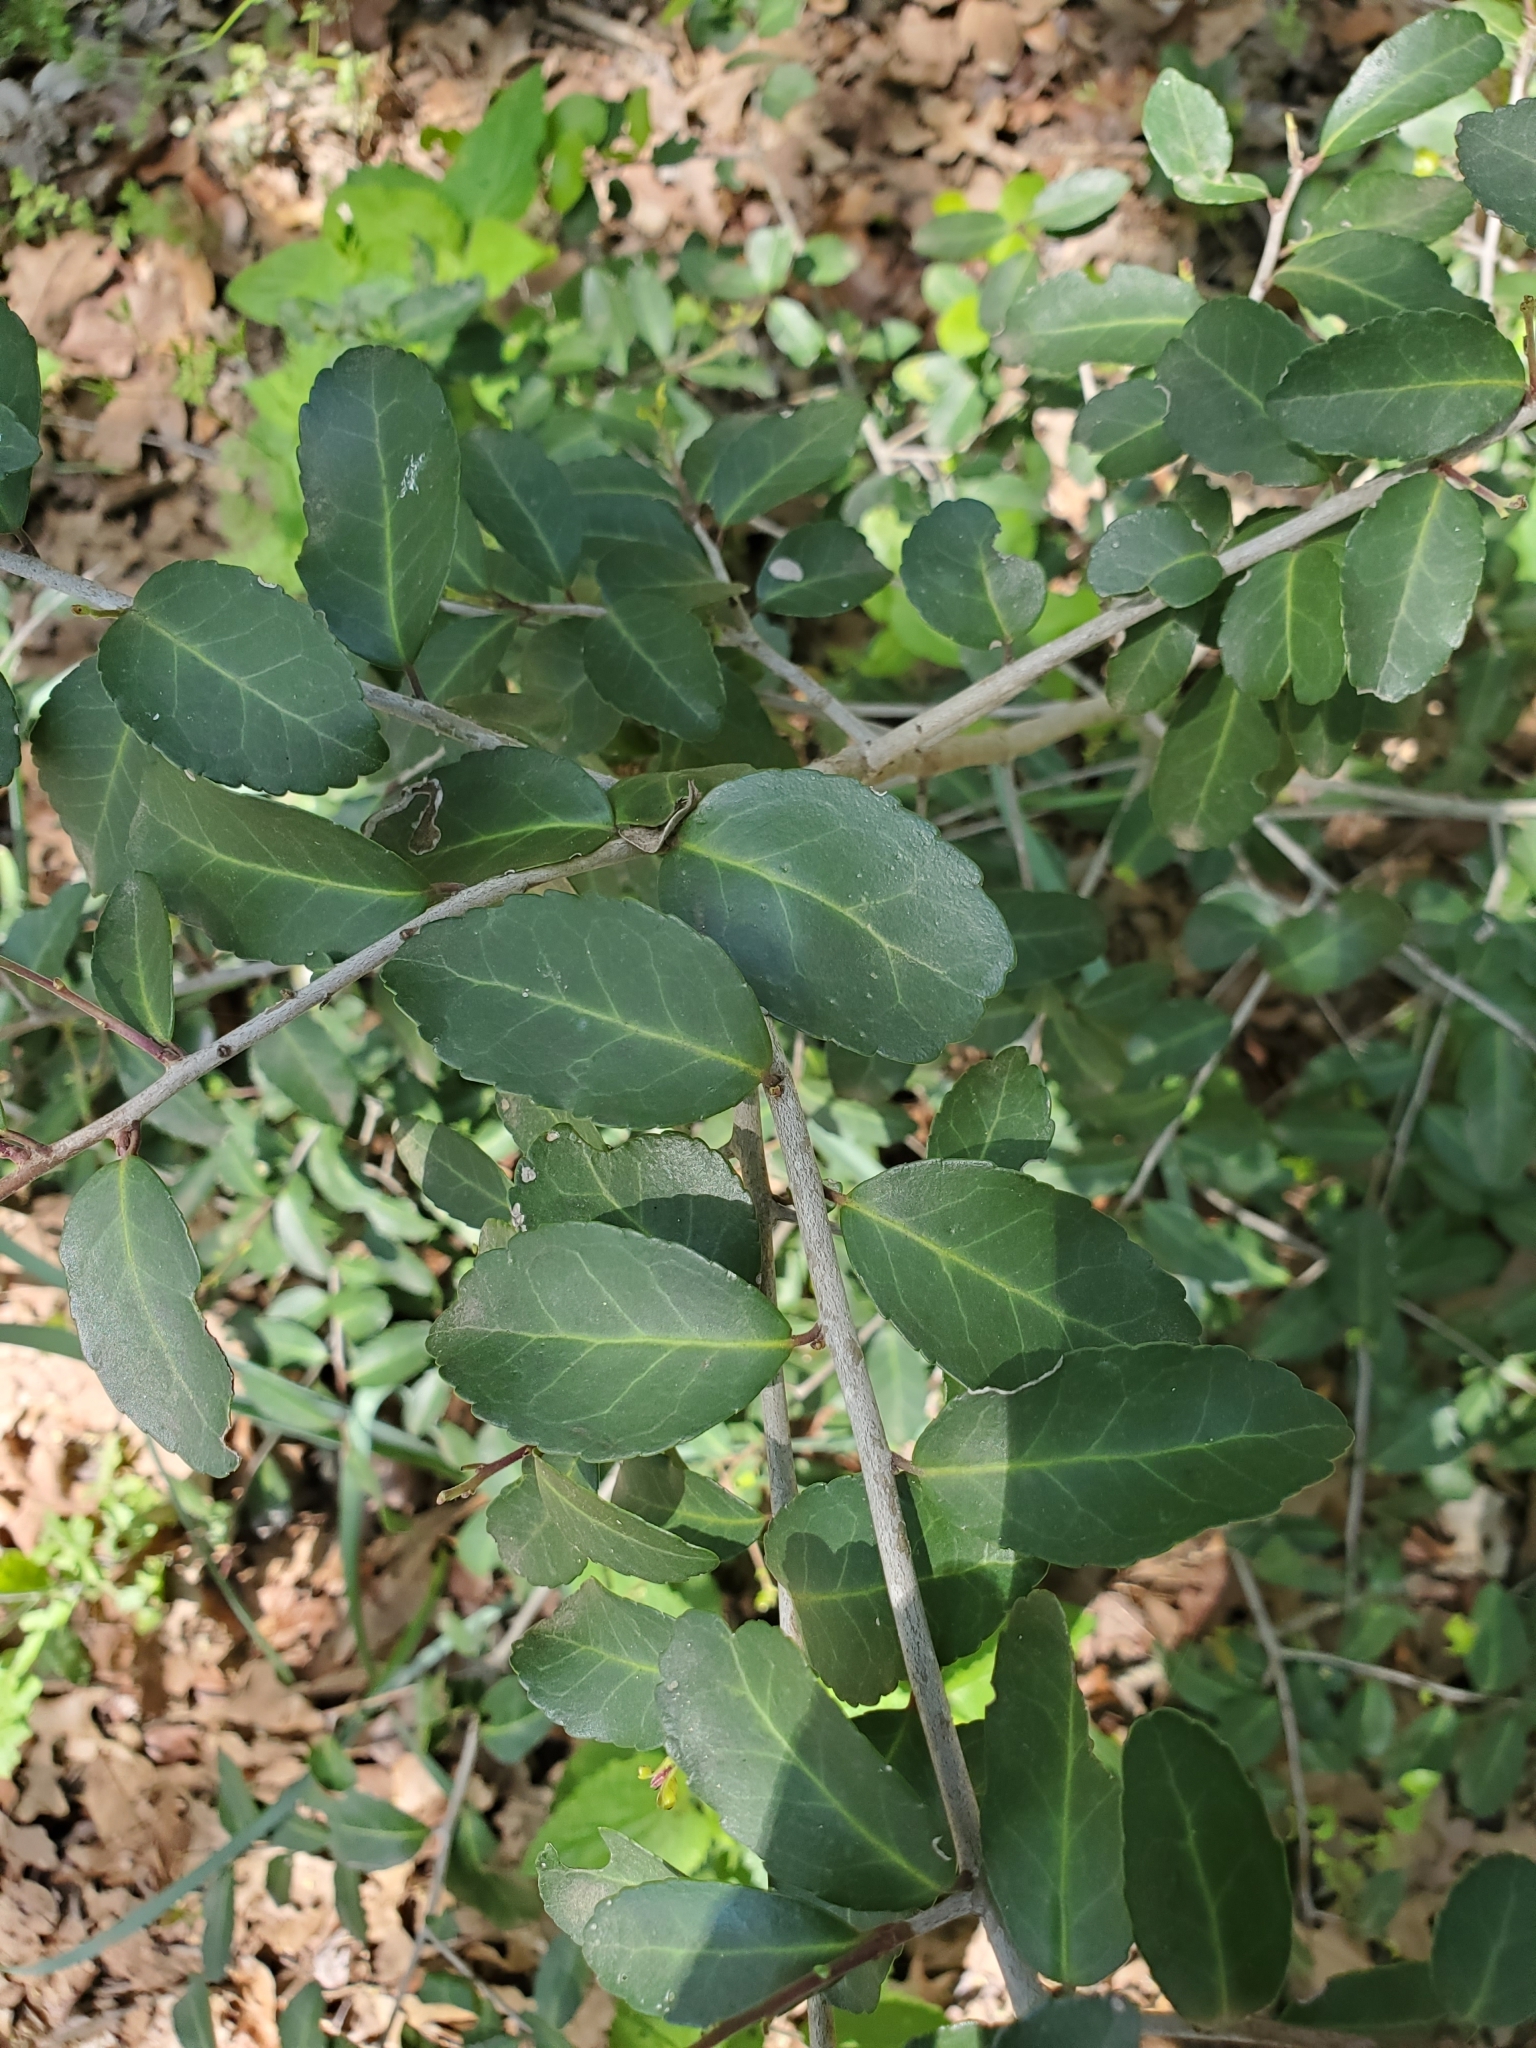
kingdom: Plantae
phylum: Tracheophyta
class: Magnoliopsida
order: Aquifoliales
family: Aquifoliaceae
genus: Ilex
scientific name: Ilex vomitoria
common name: Yaupon holly
